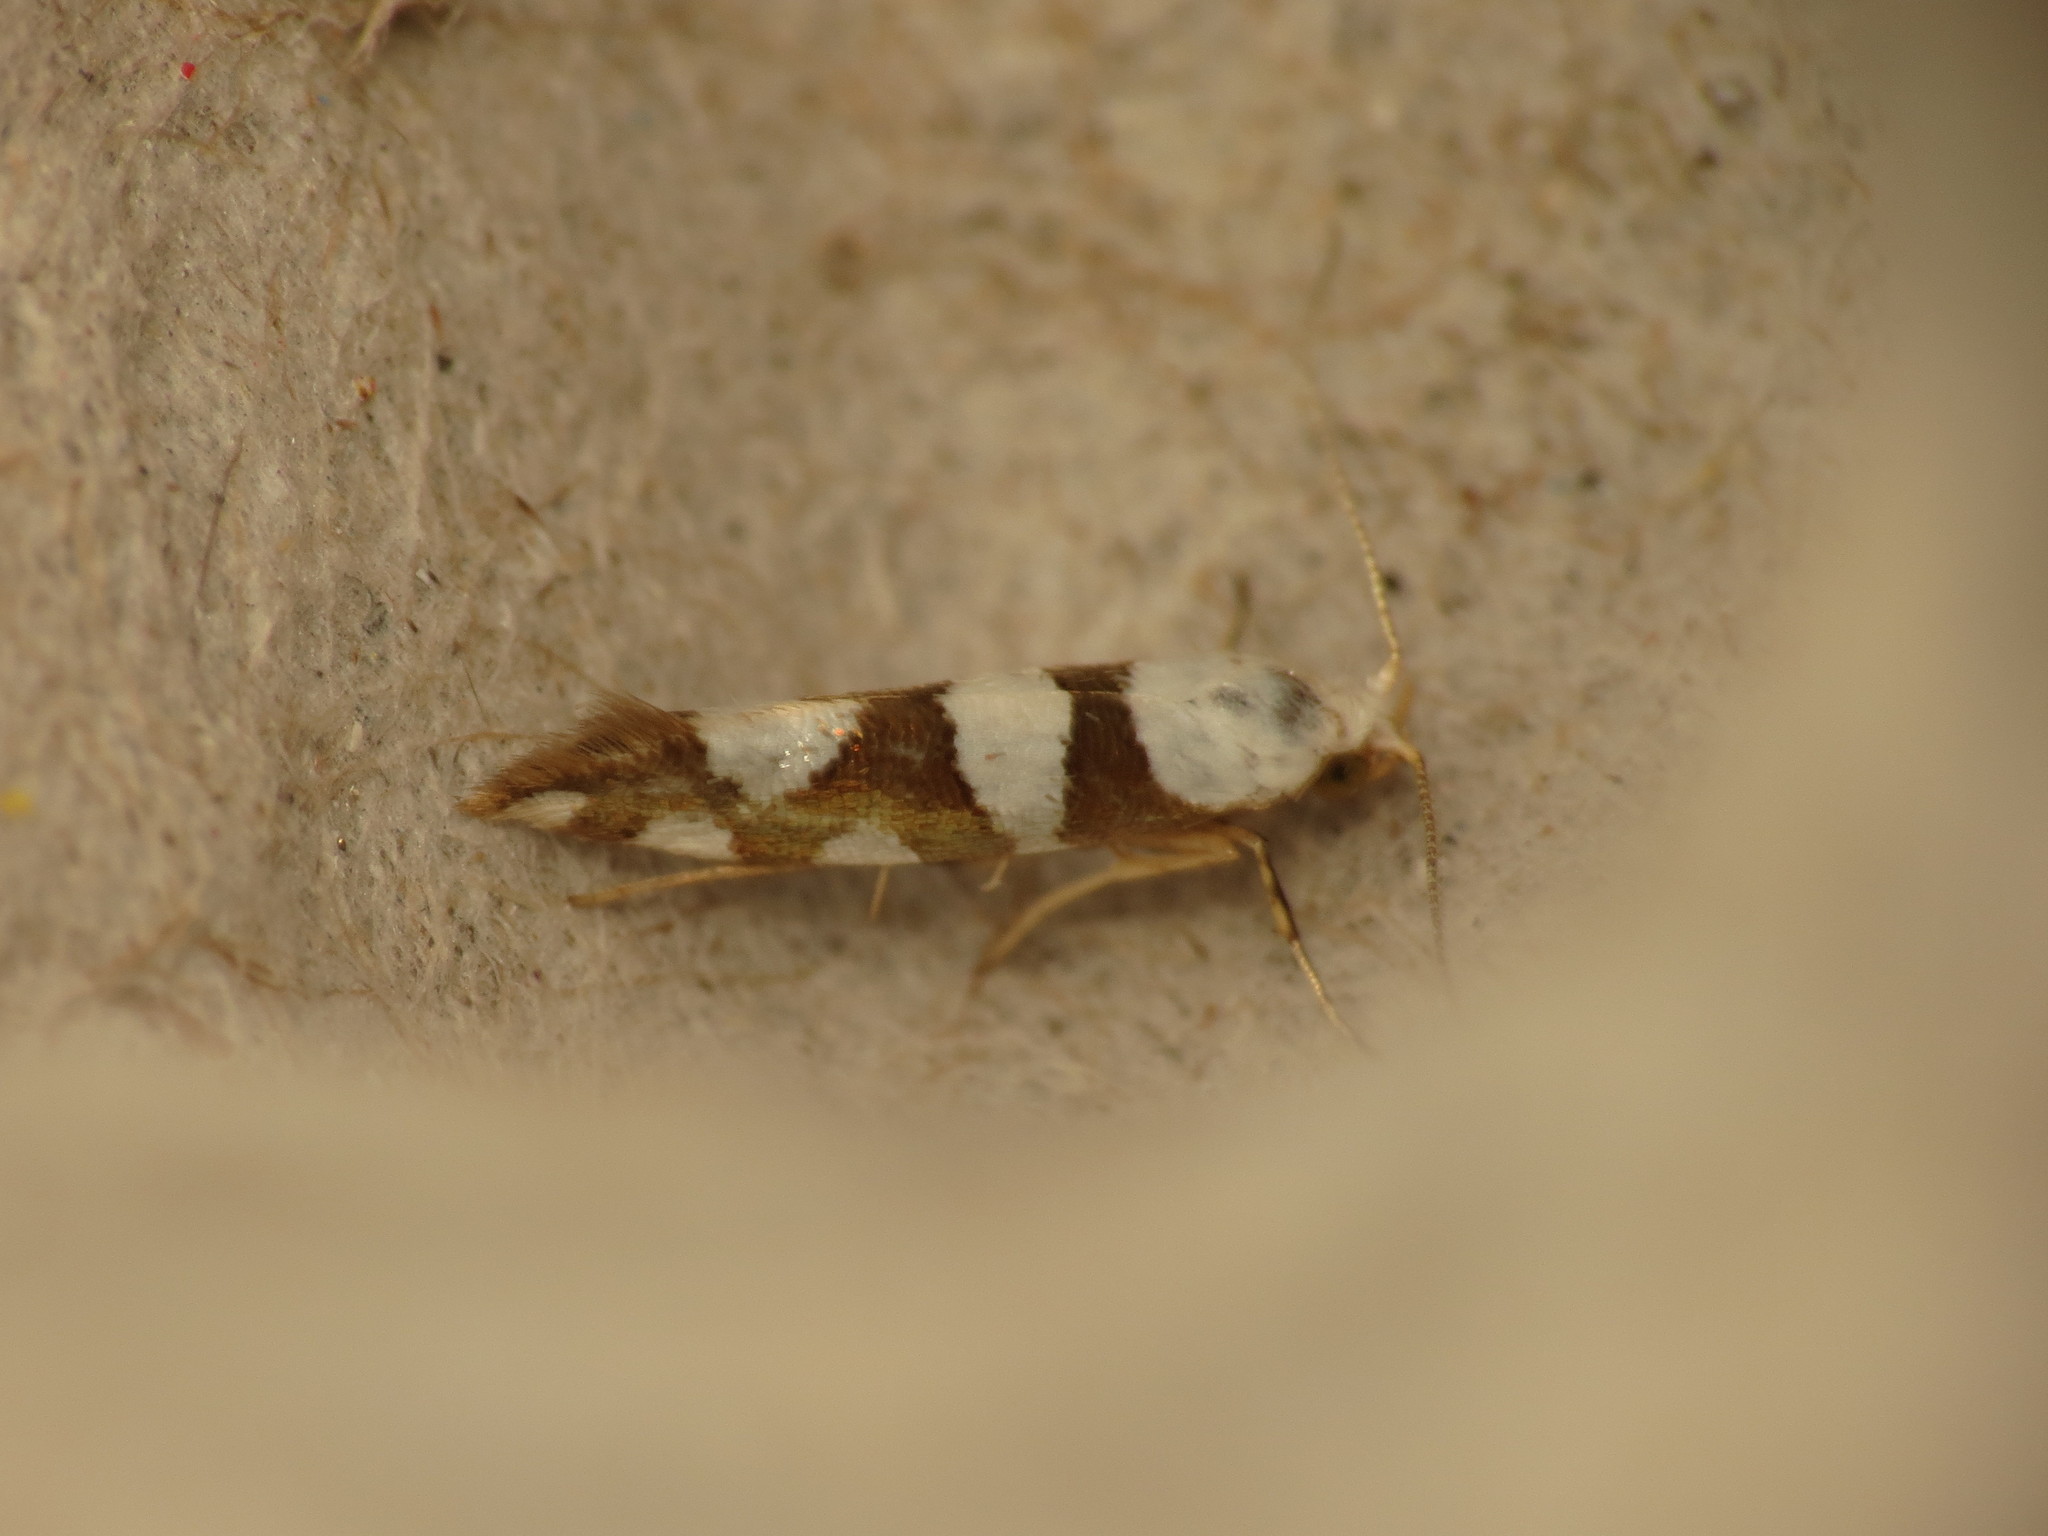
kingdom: Animalia
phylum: Arthropoda
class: Insecta
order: Lepidoptera
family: Argyresthiidae
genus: Argyresthia
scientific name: Argyresthia brockeella
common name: Gold-ribbon argent
